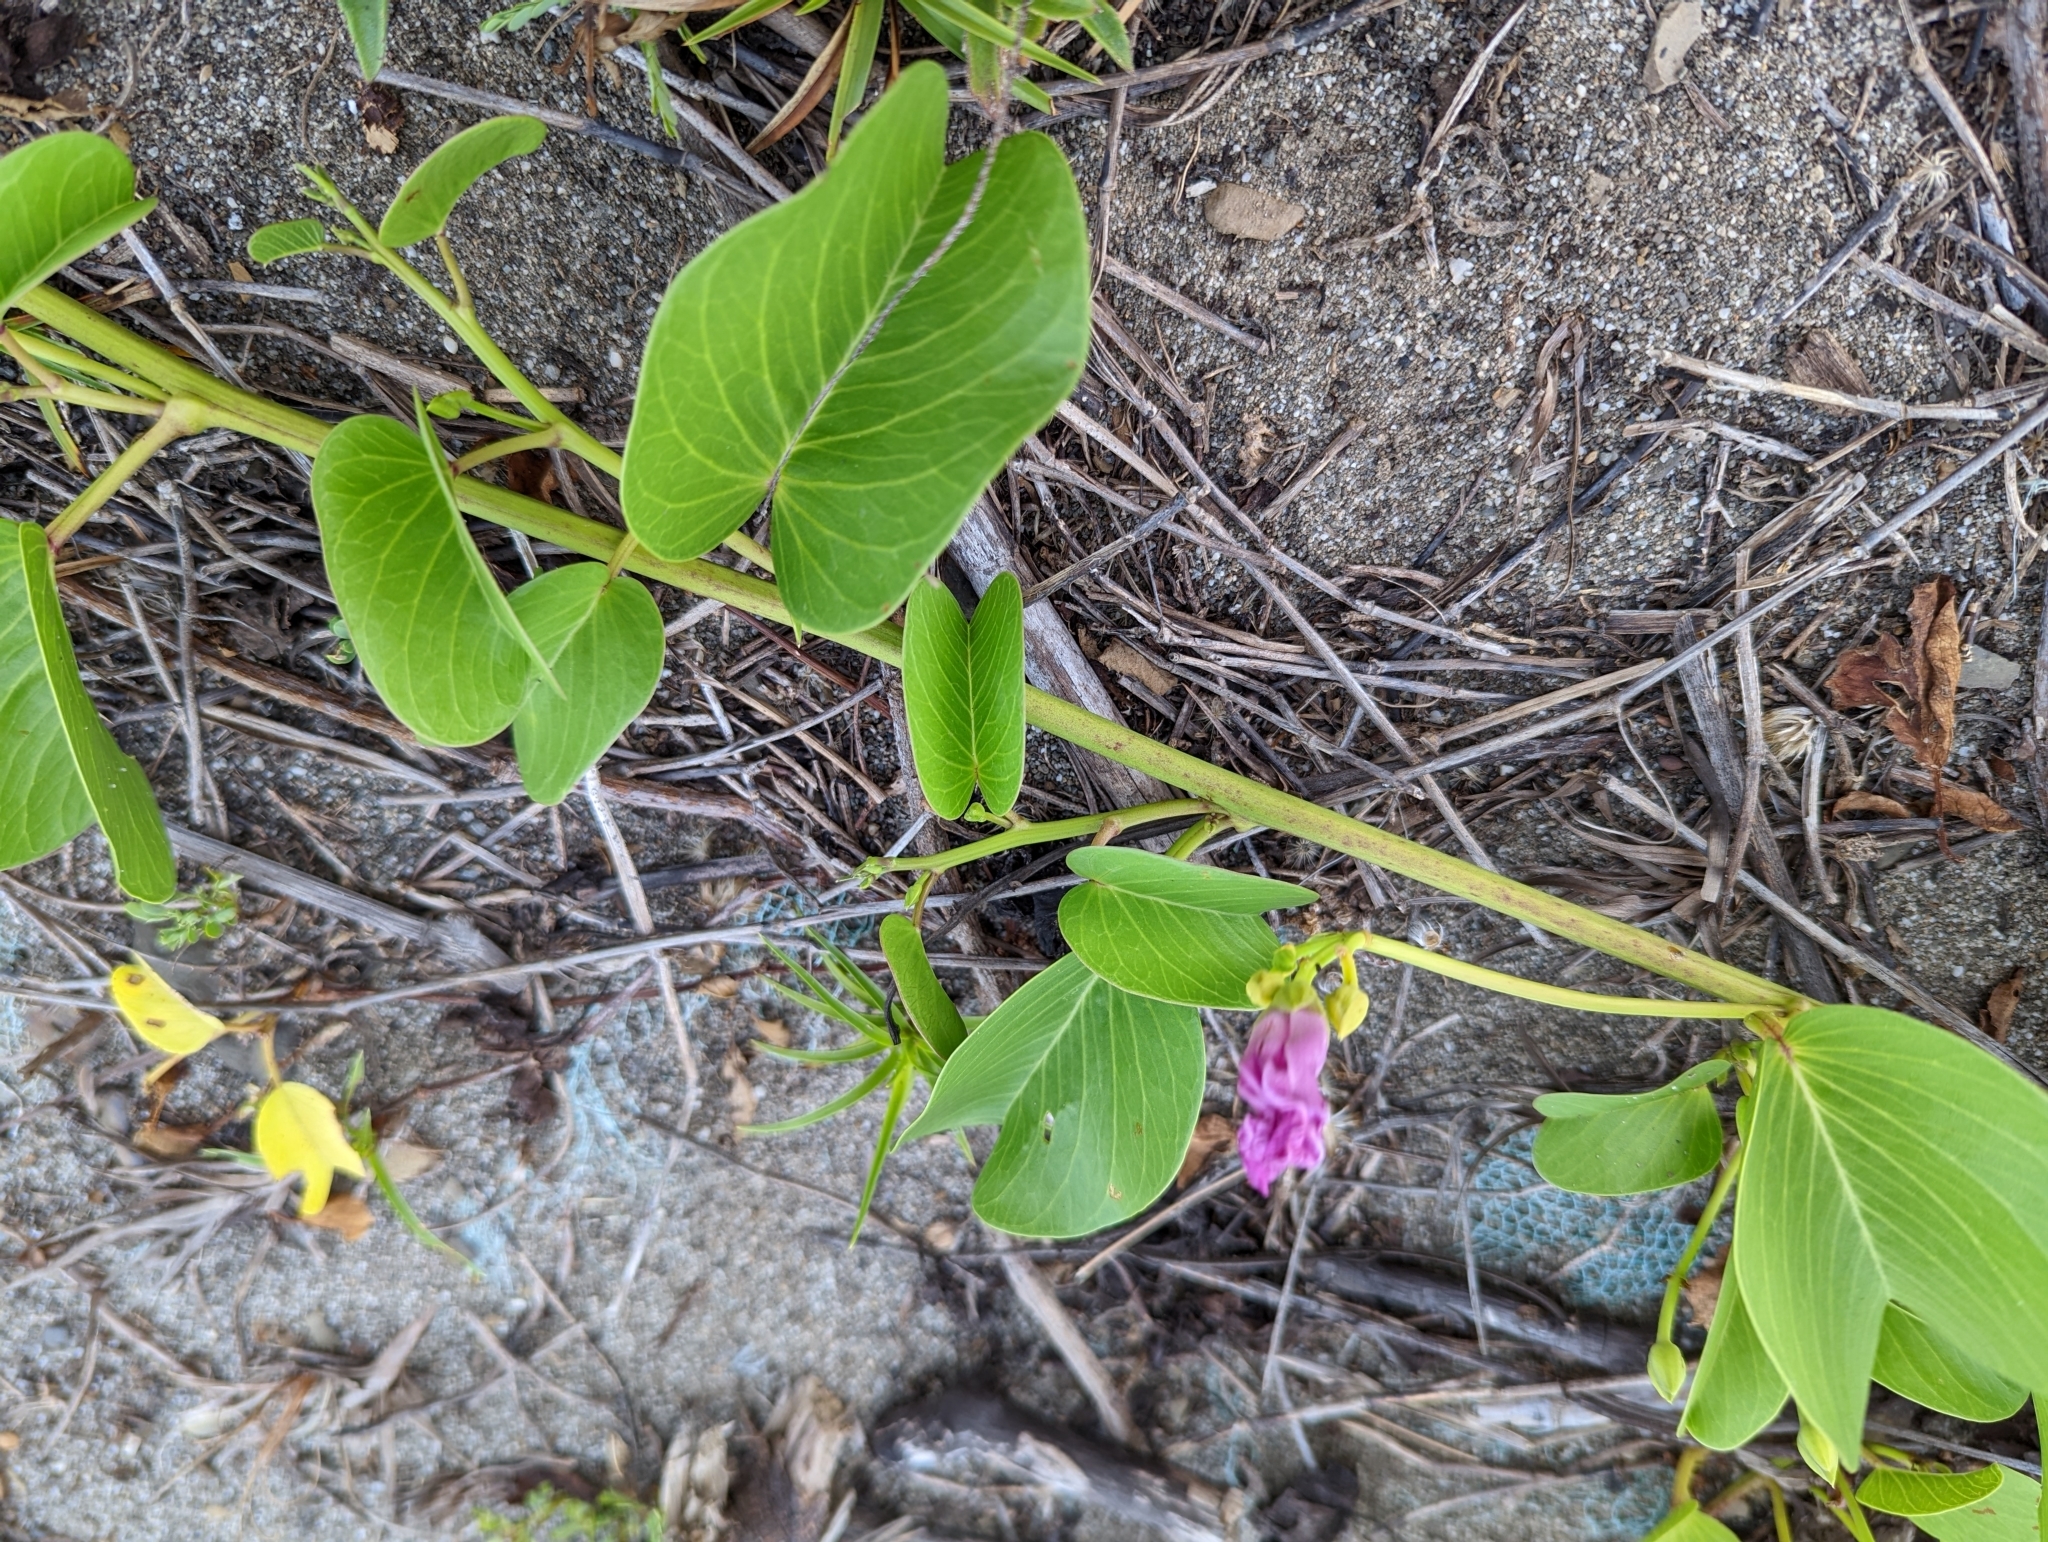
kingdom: Plantae
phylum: Tracheophyta
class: Magnoliopsida
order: Solanales
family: Convolvulaceae
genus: Ipomoea
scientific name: Ipomoea pes-caprae
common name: Beach morning glory
